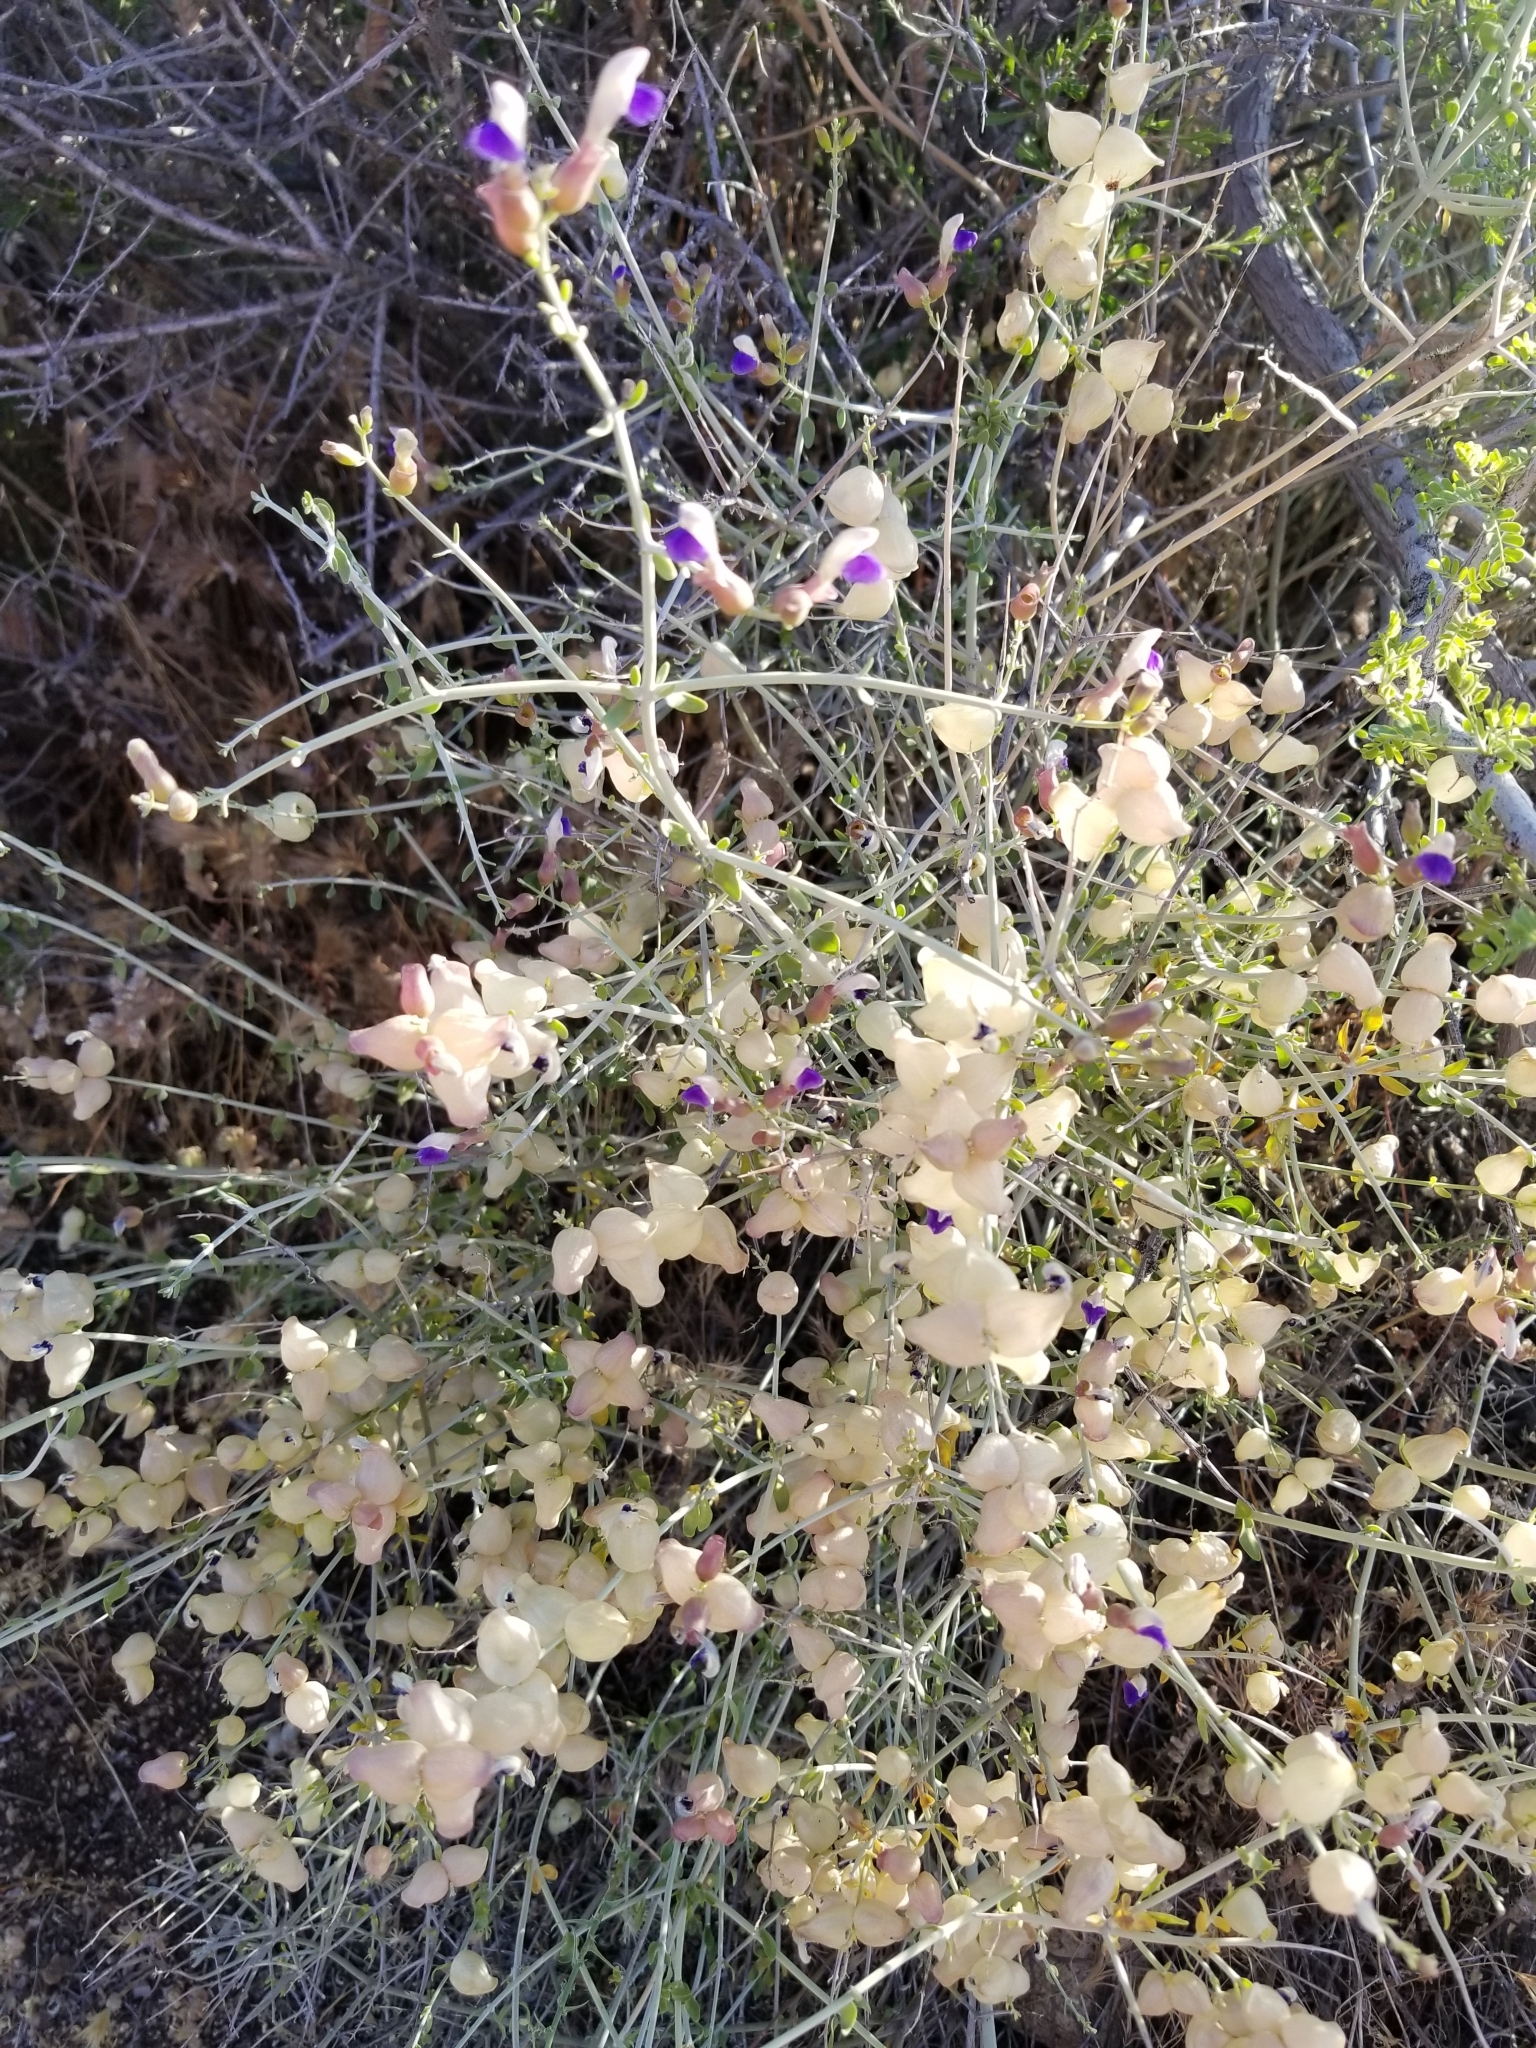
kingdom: Plantae
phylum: Tracheophyta
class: Magnoliopsida
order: Lamiales
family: Lamiaceae
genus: Scutellaria
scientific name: Scutellaria mexicana
